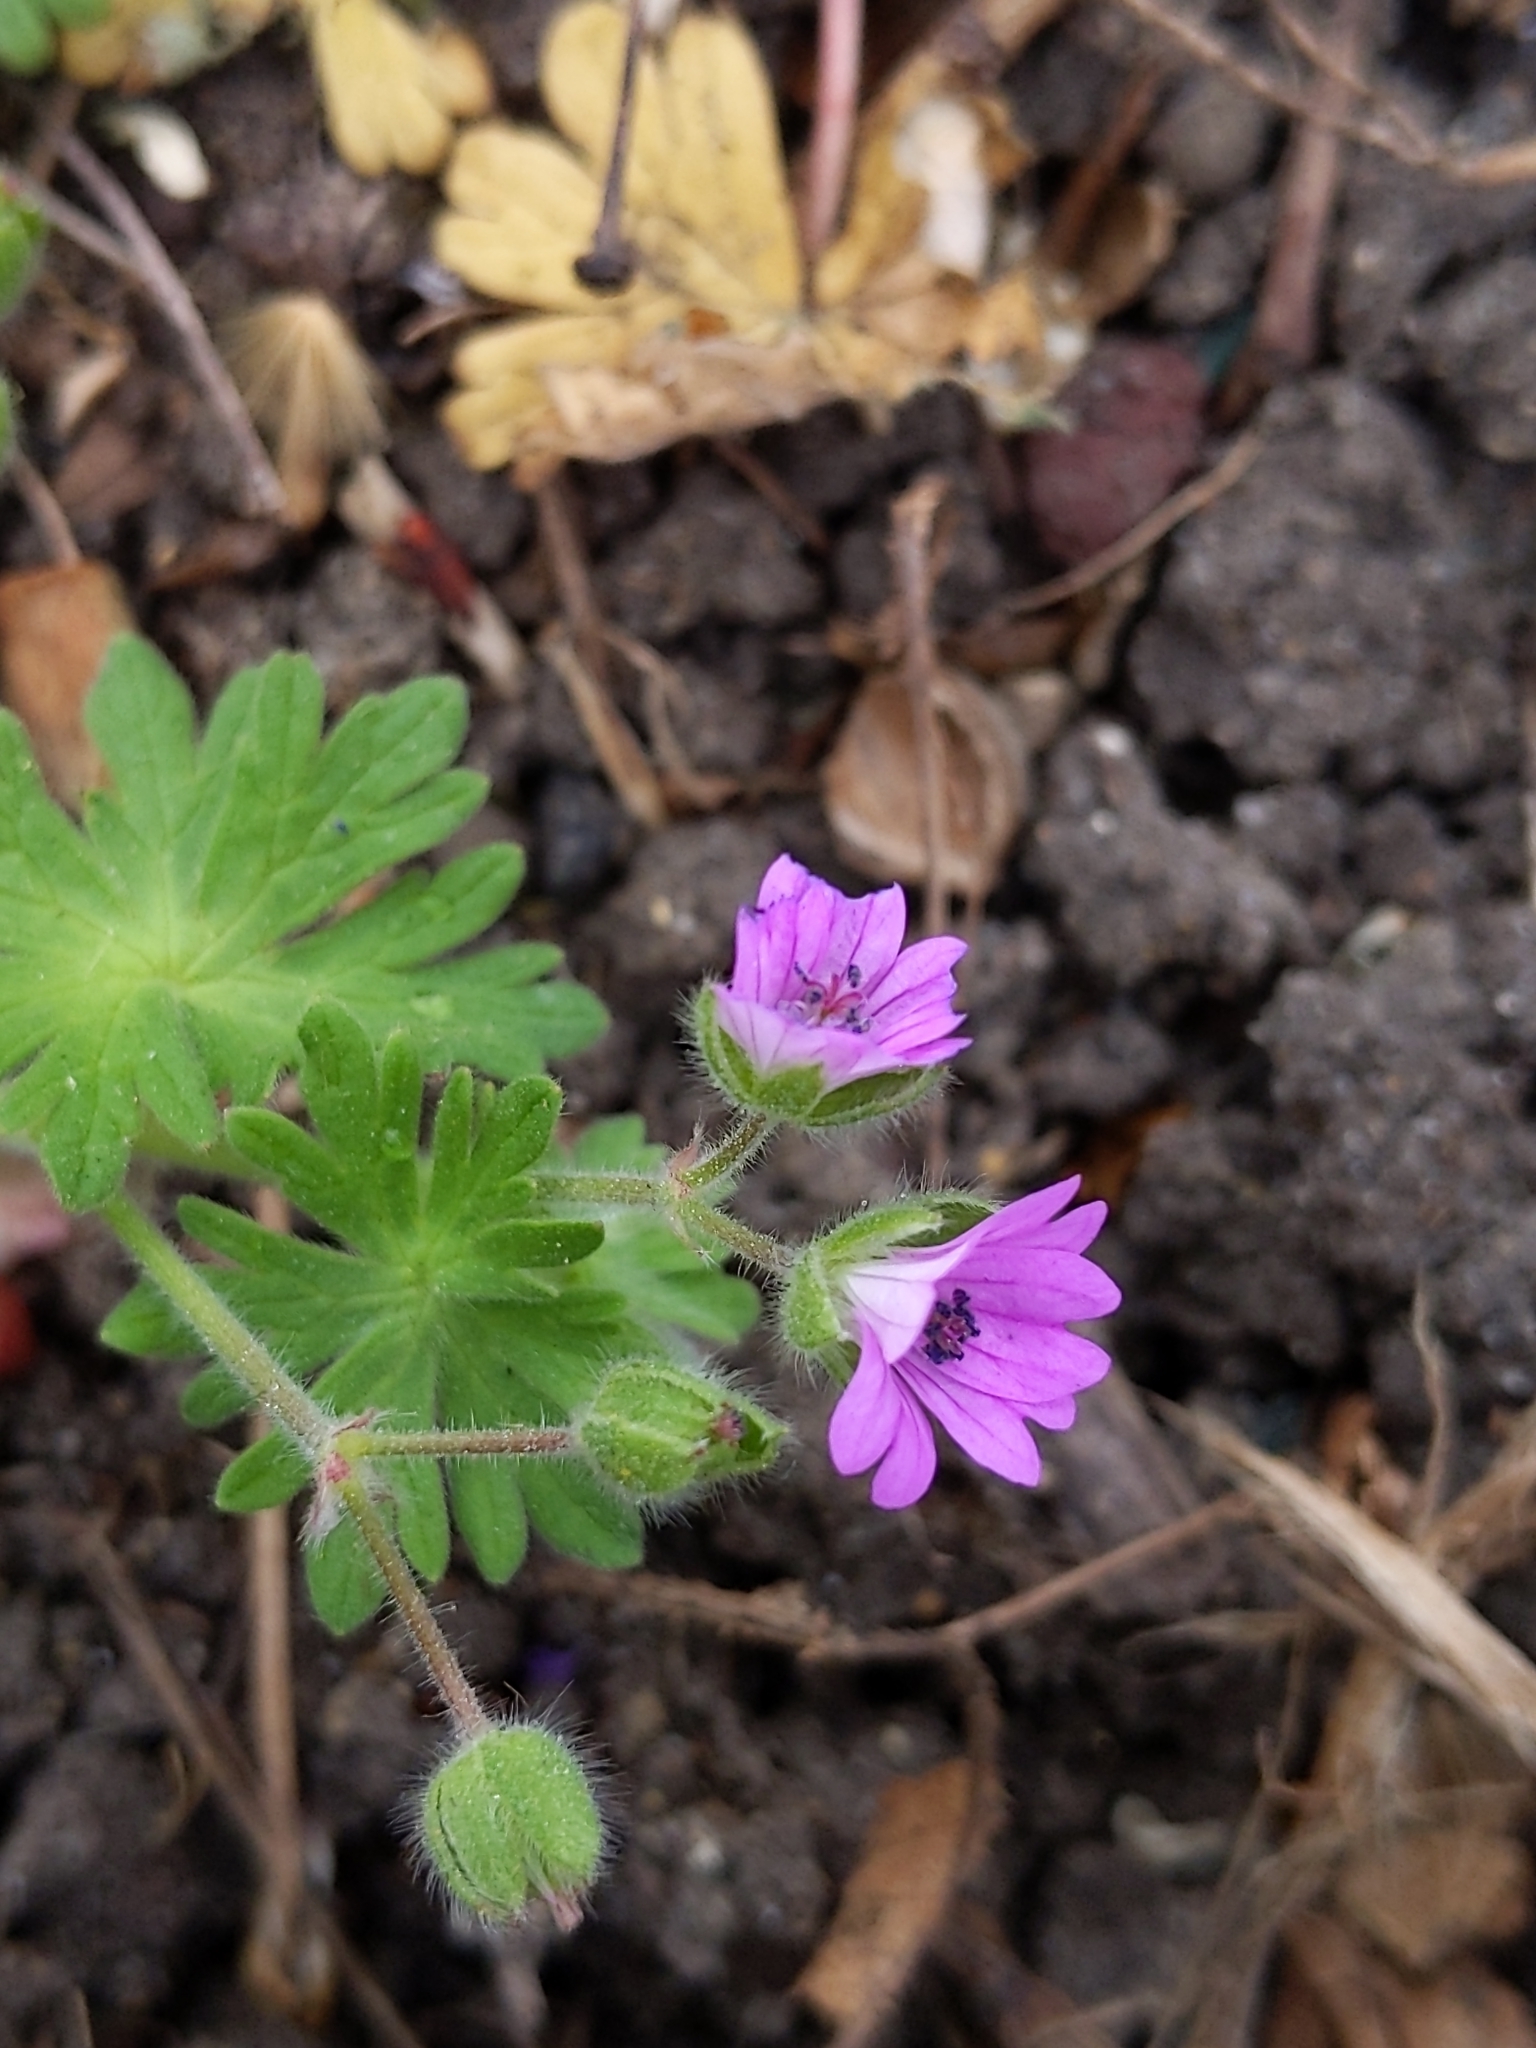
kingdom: Plantae
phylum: Tracheophyta
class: Magnoliopsida
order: Geraniales
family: Geraniaceae
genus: Geranium
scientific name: Geranium molle
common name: Dove's-foot crane's-bill
